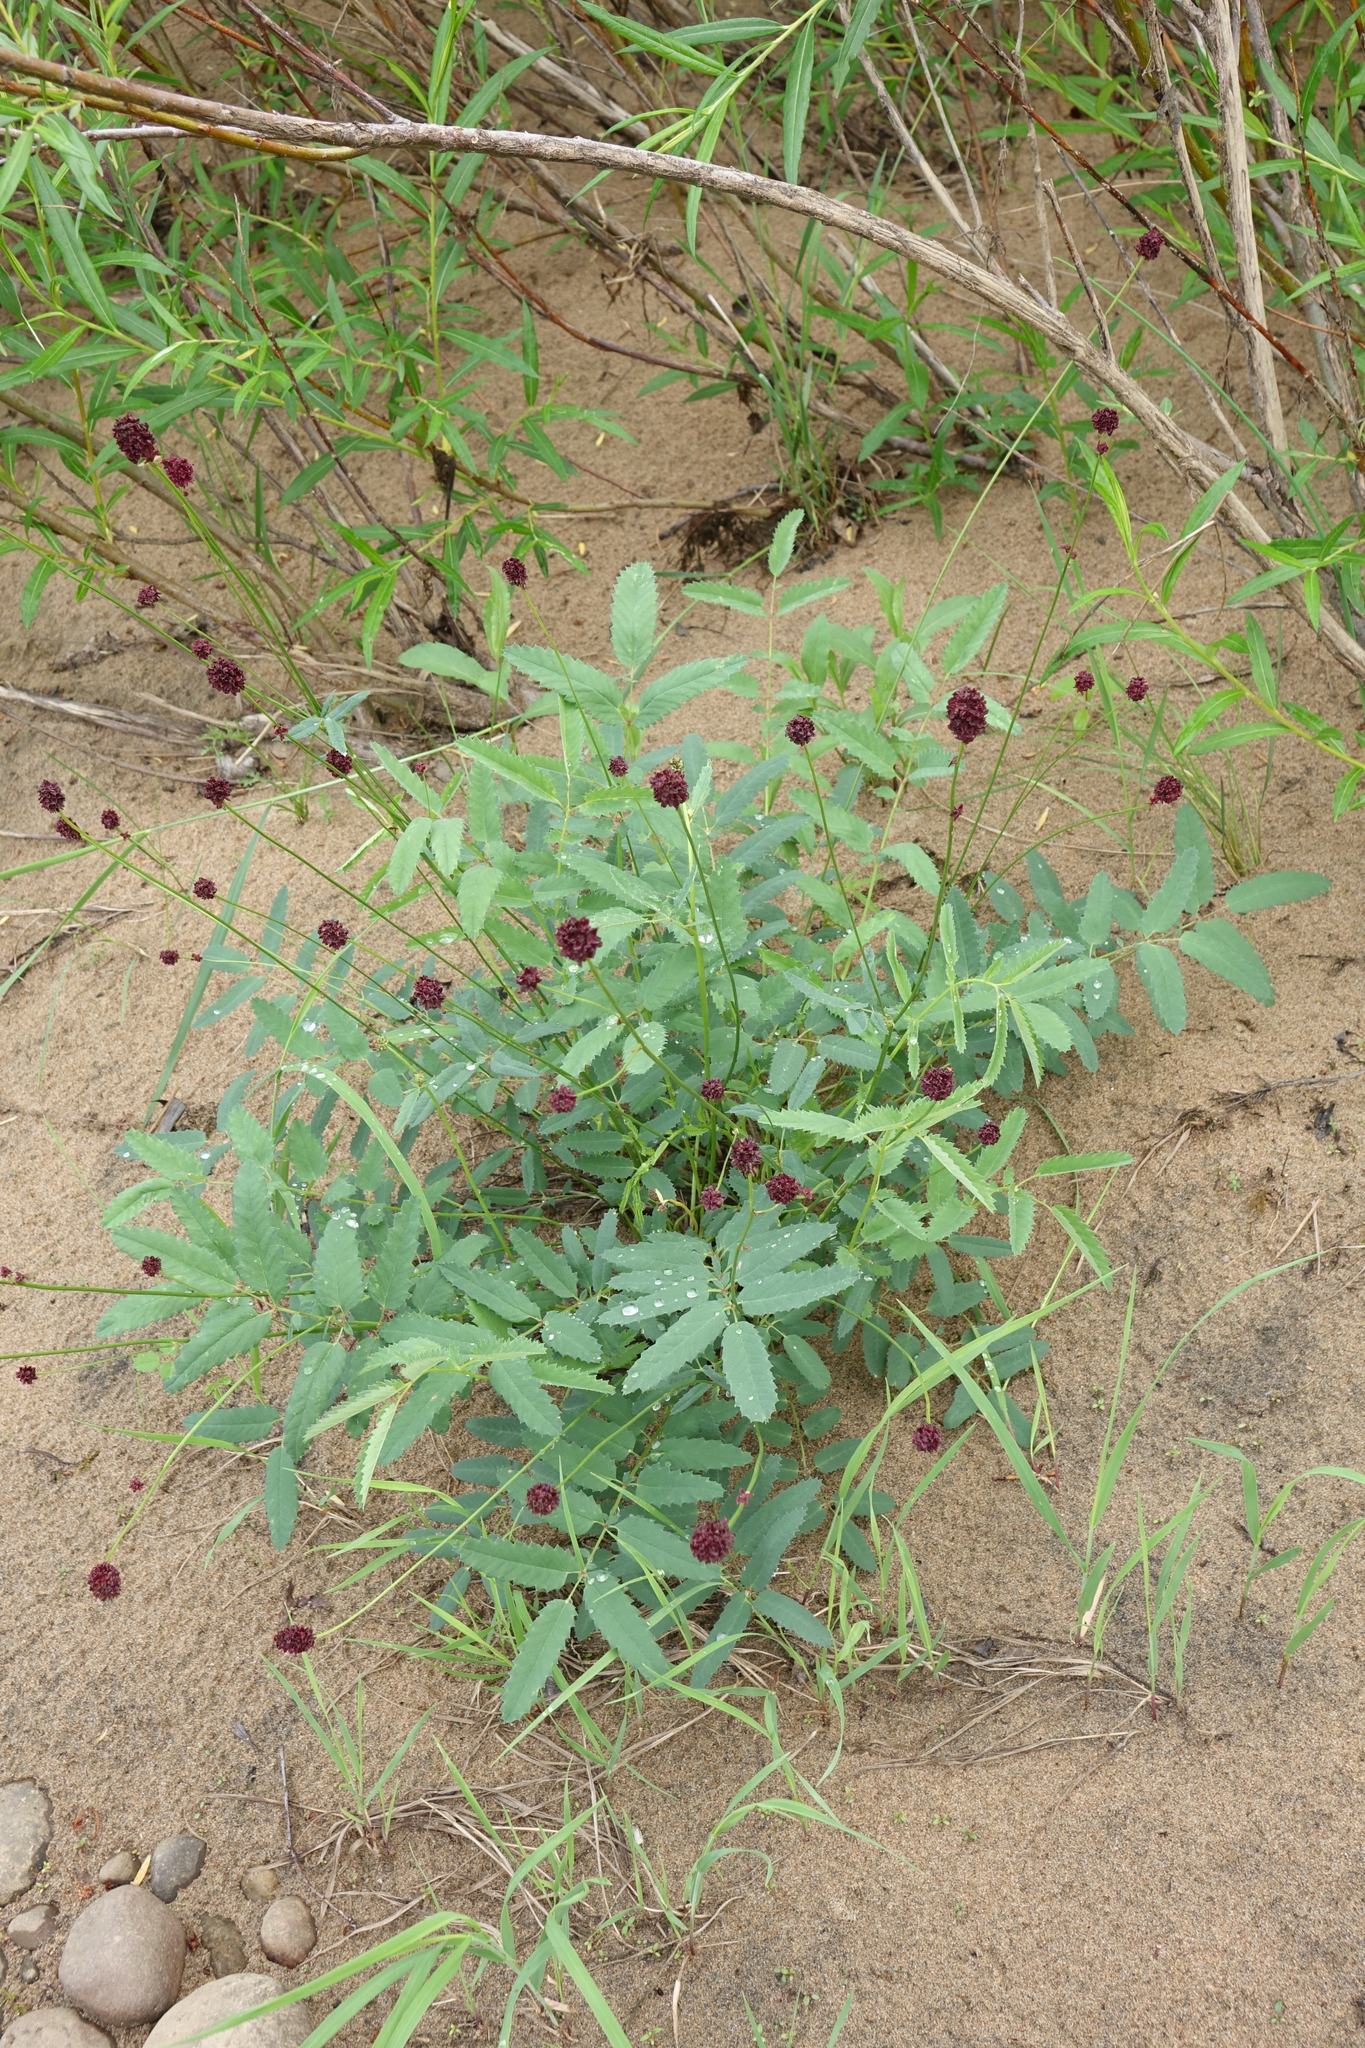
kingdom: Plantae
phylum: Tracheophyta
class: Magnoliopsida
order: Rosales
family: Rosaceae
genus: Sanguisorba
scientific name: Sanguisorba officinalis
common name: Great burnet
